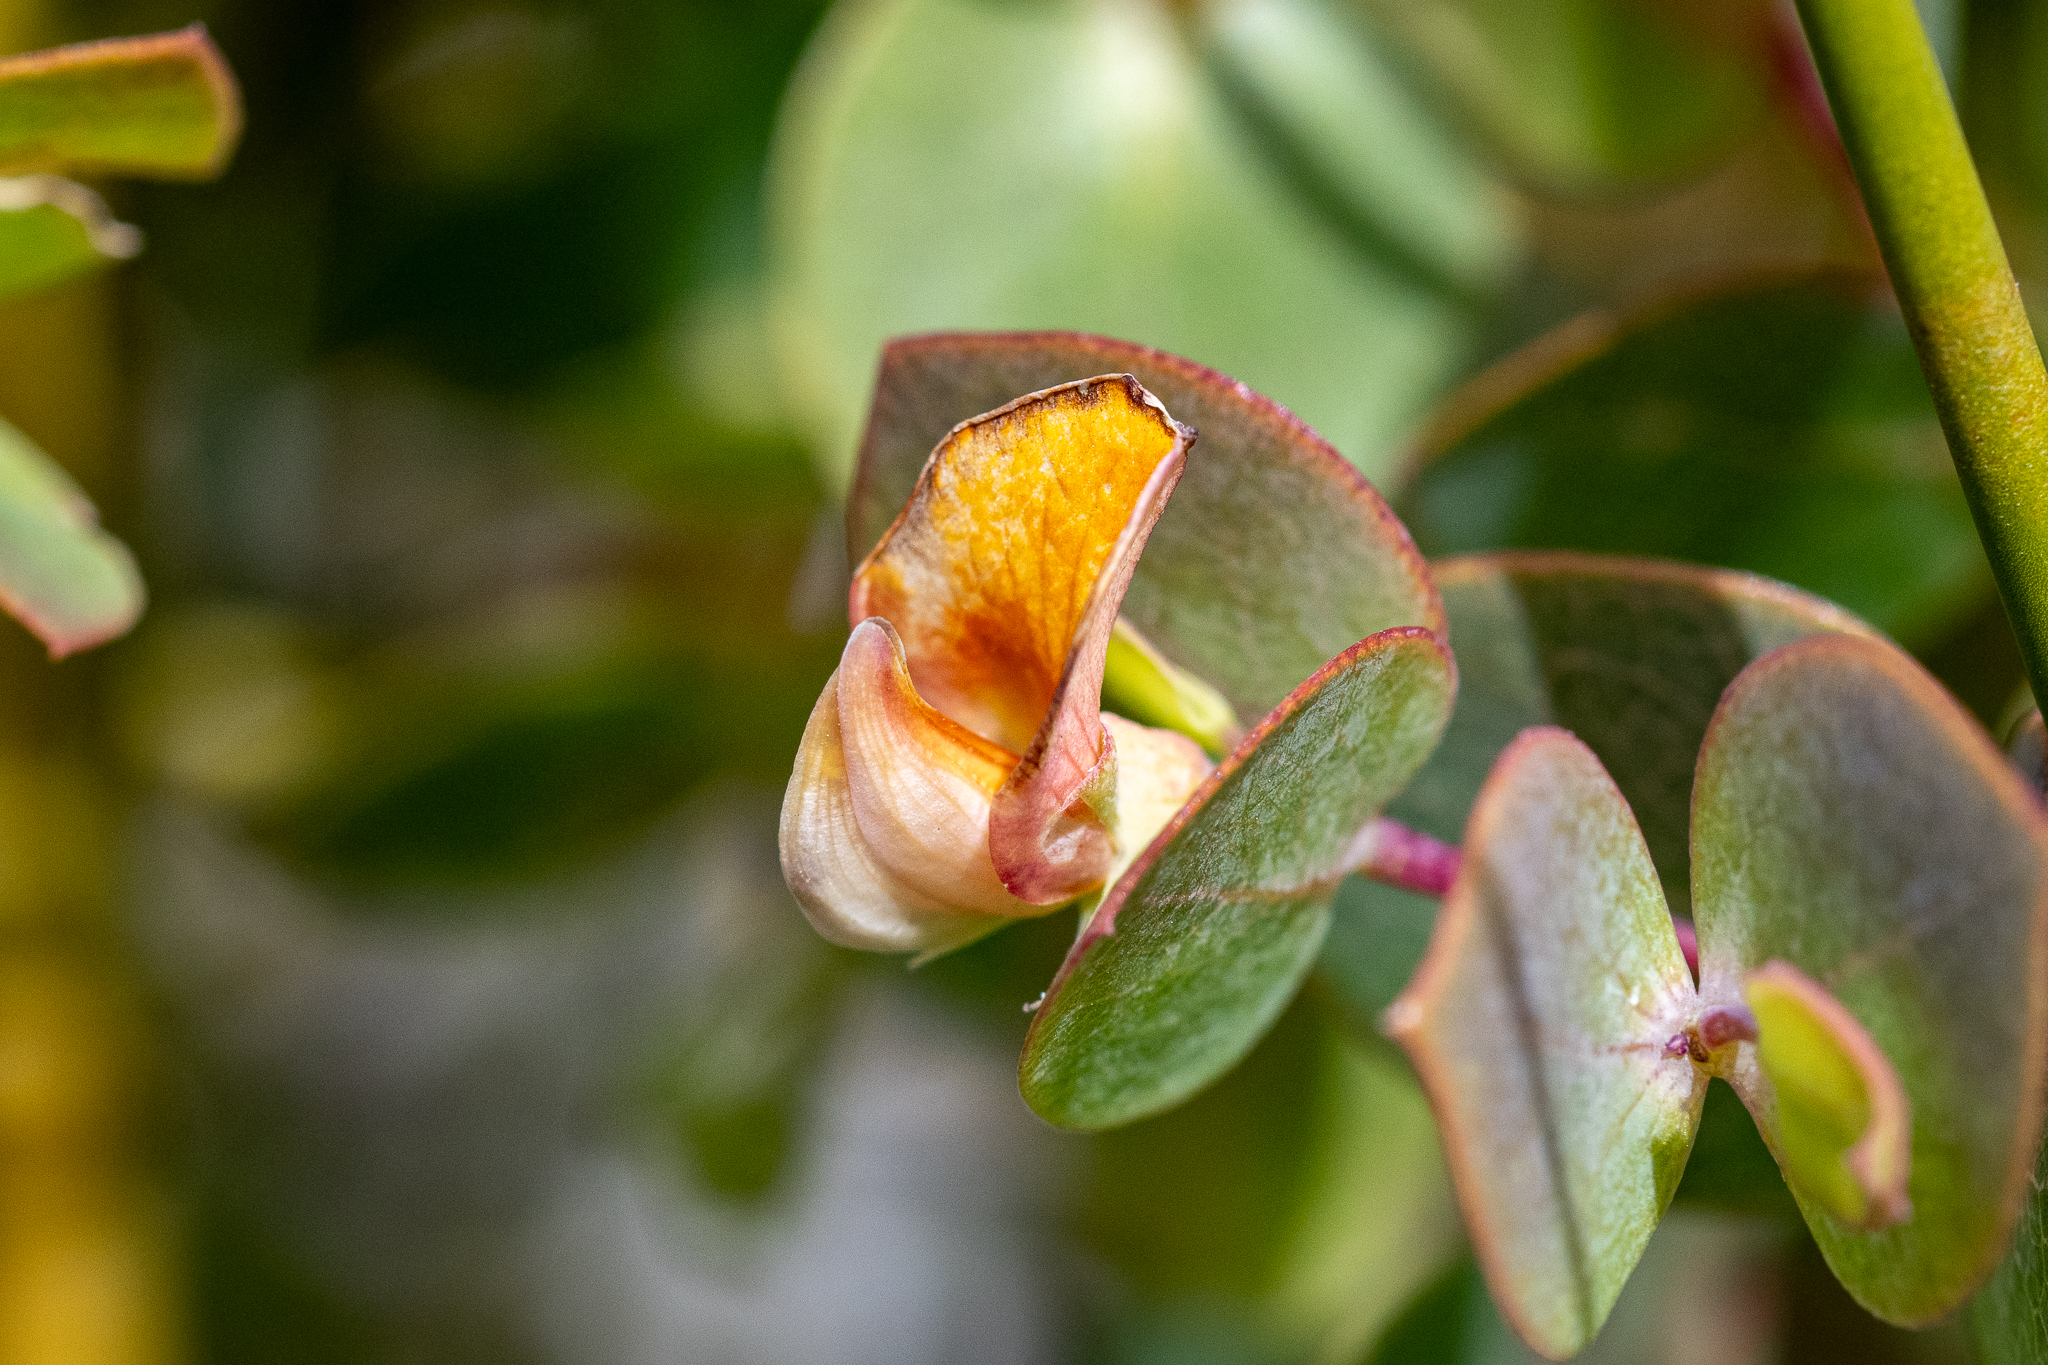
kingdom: Plantae
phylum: Tracheophyta
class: Magnoliopsida
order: Fabales
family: Fabaceae
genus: Rafnia
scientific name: Rafnia acuminata
